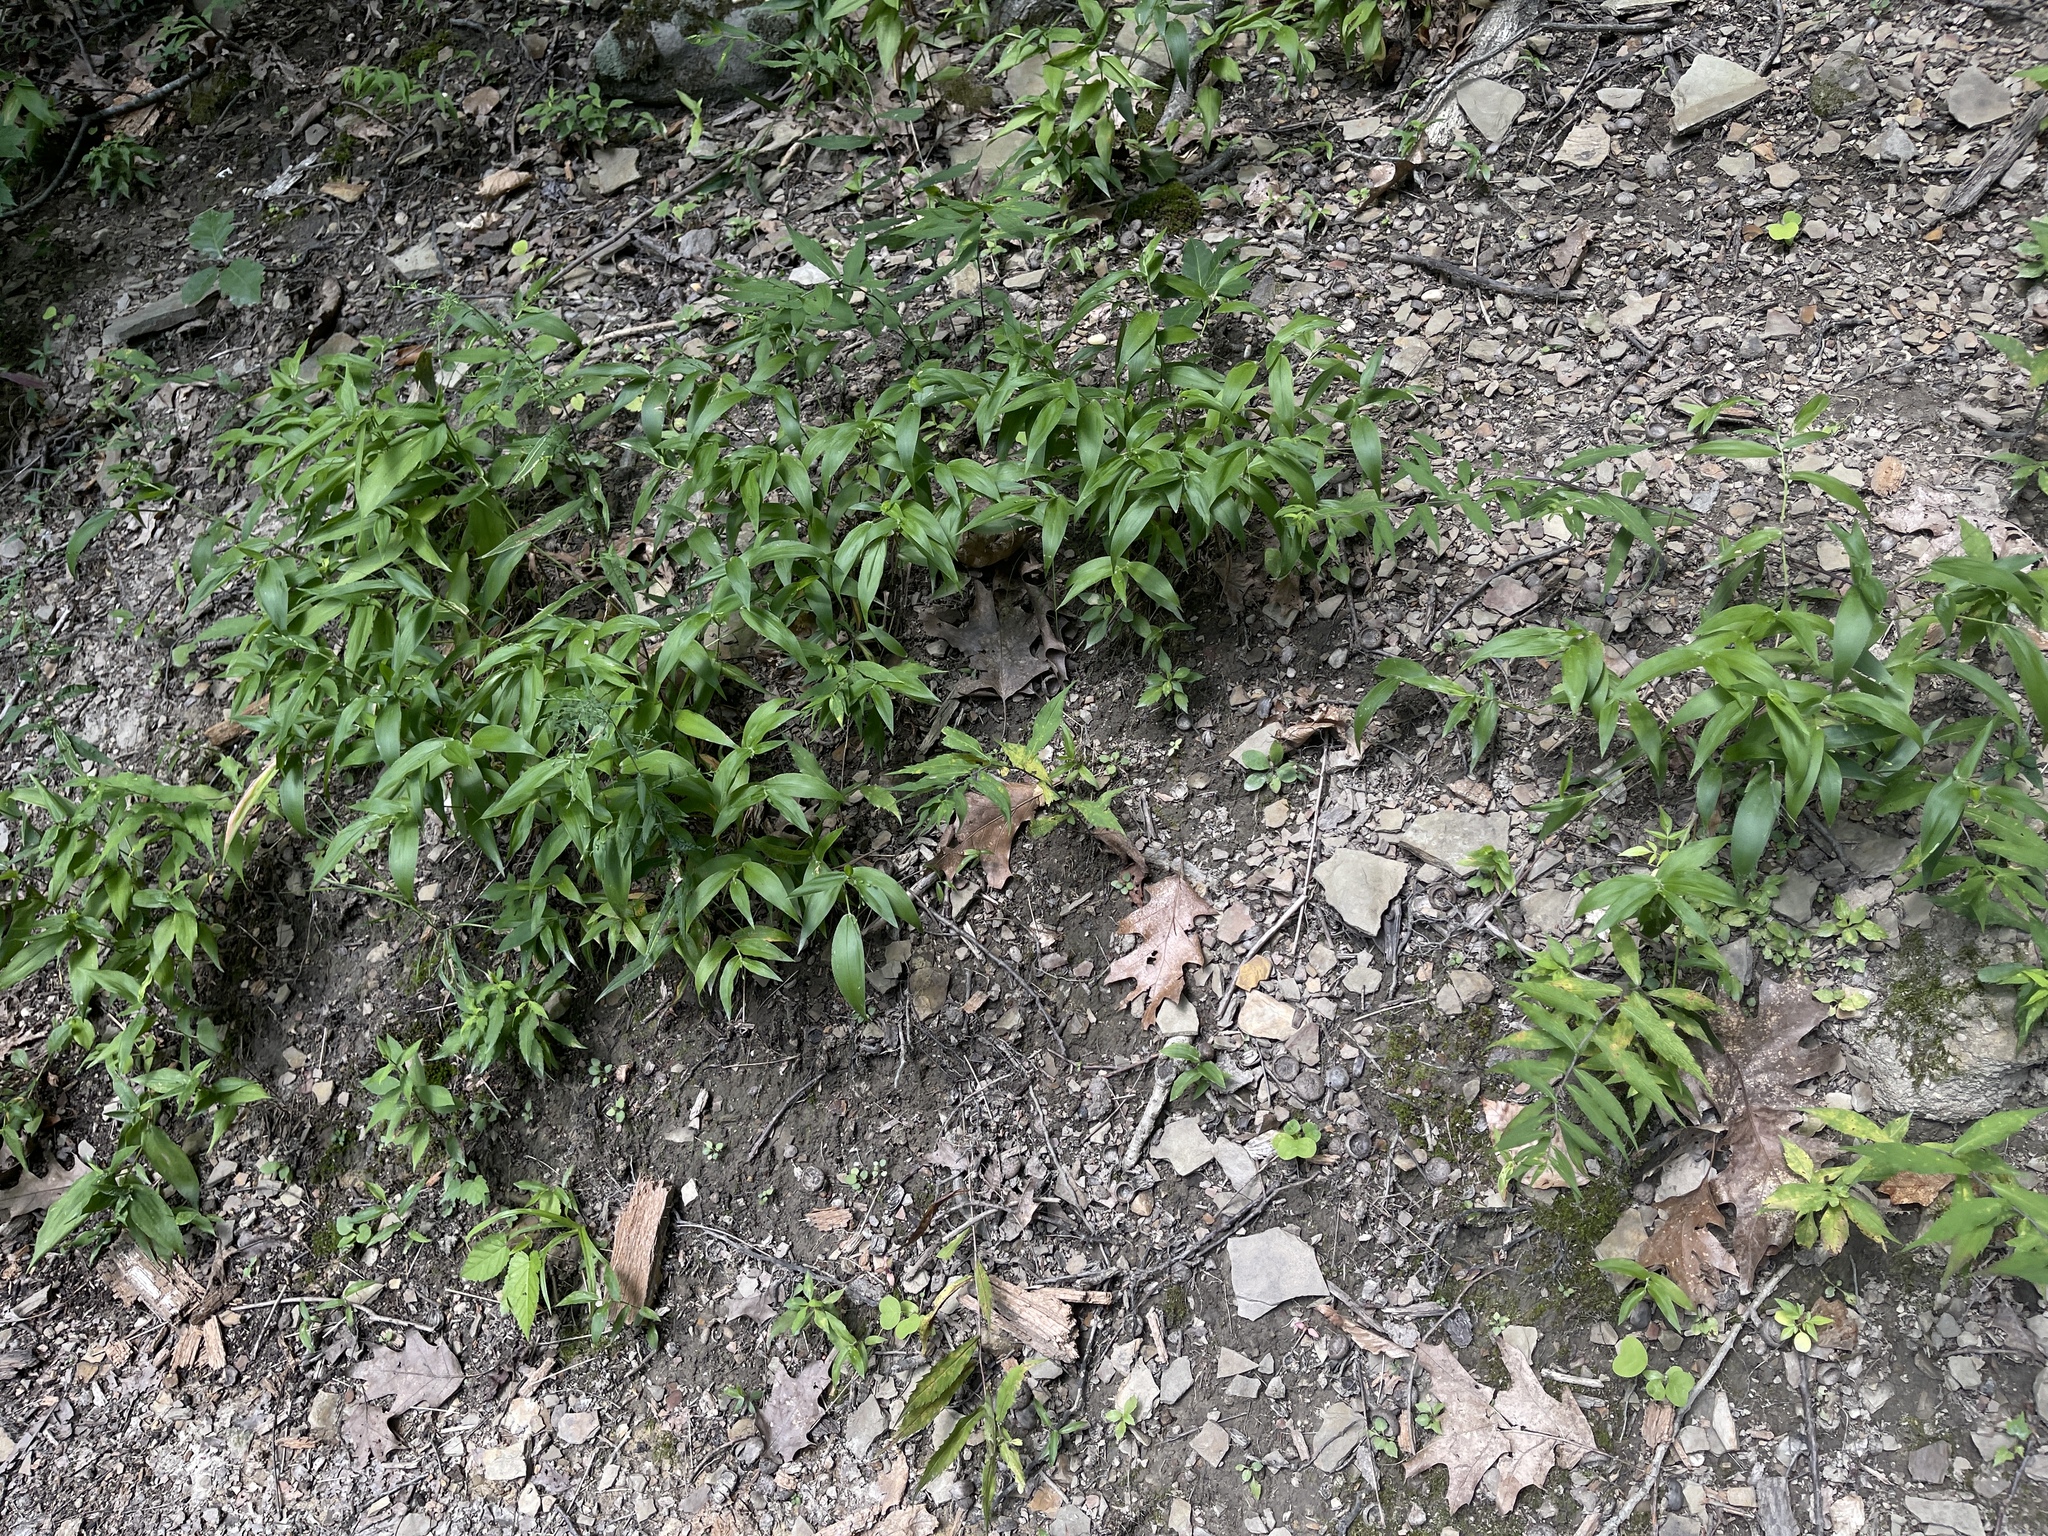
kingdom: Plantae
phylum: Tracheophyta
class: Liliopsida
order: Poales
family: Poaceae
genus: Dichanthelium
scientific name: Dichanthelium boscii
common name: Bosc's panic grass
